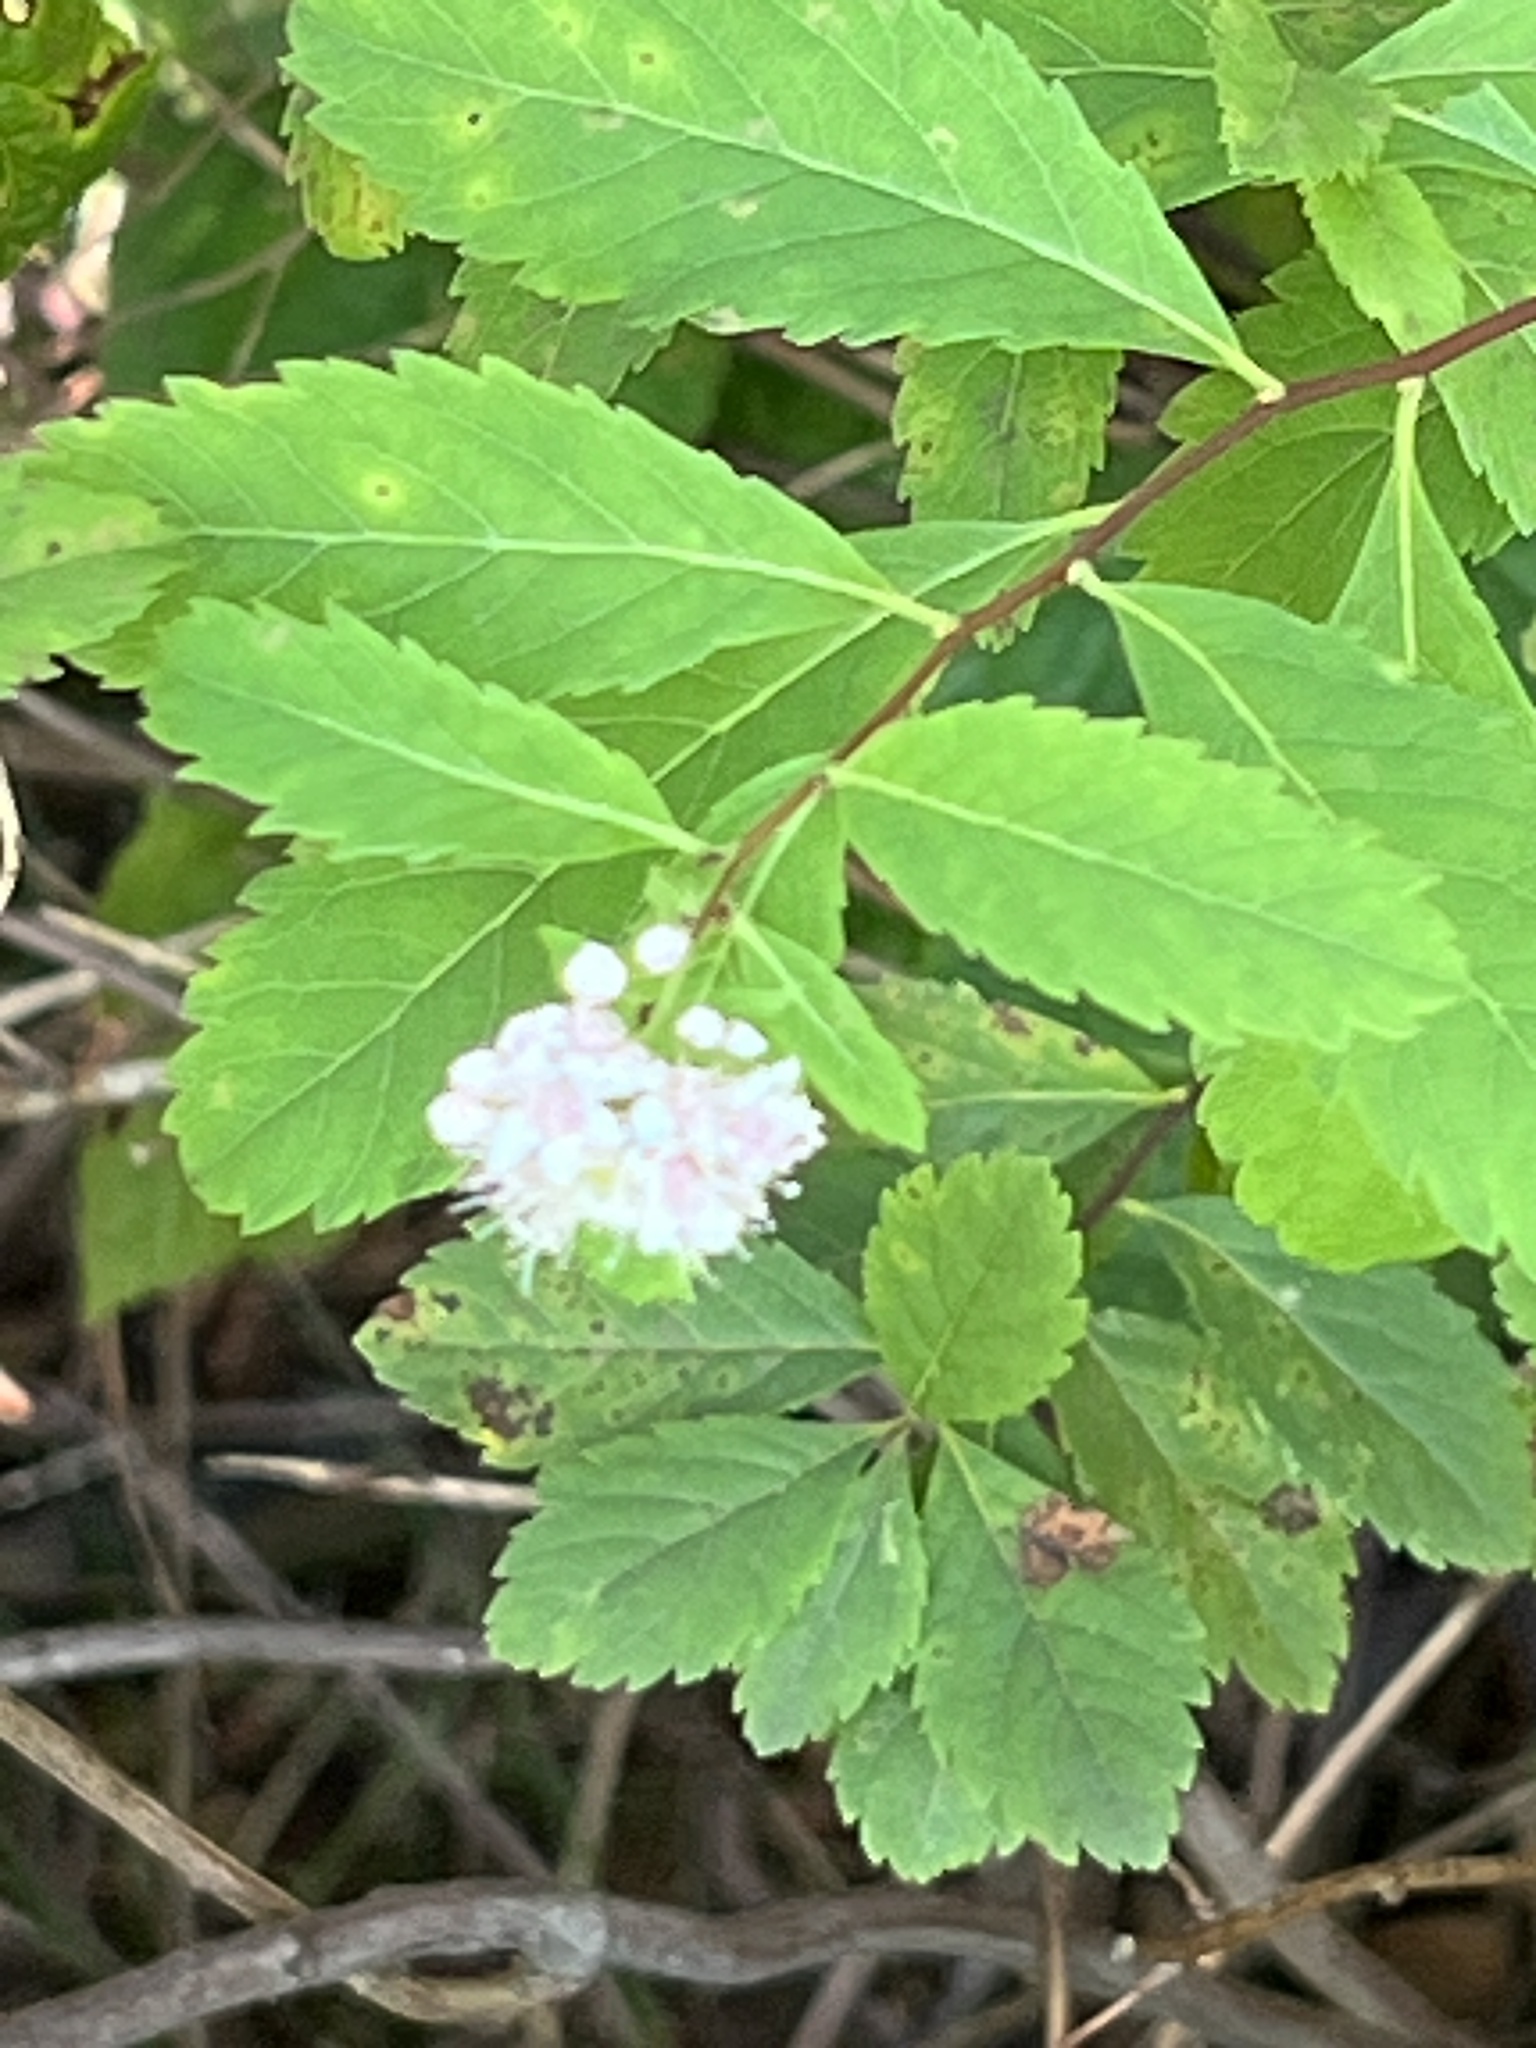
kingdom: Plantae
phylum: Tracheophyta
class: Magnoliopsida
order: Rosales
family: Rosaceae
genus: Spiraea
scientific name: Spiraea alba
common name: Pale bridewort
